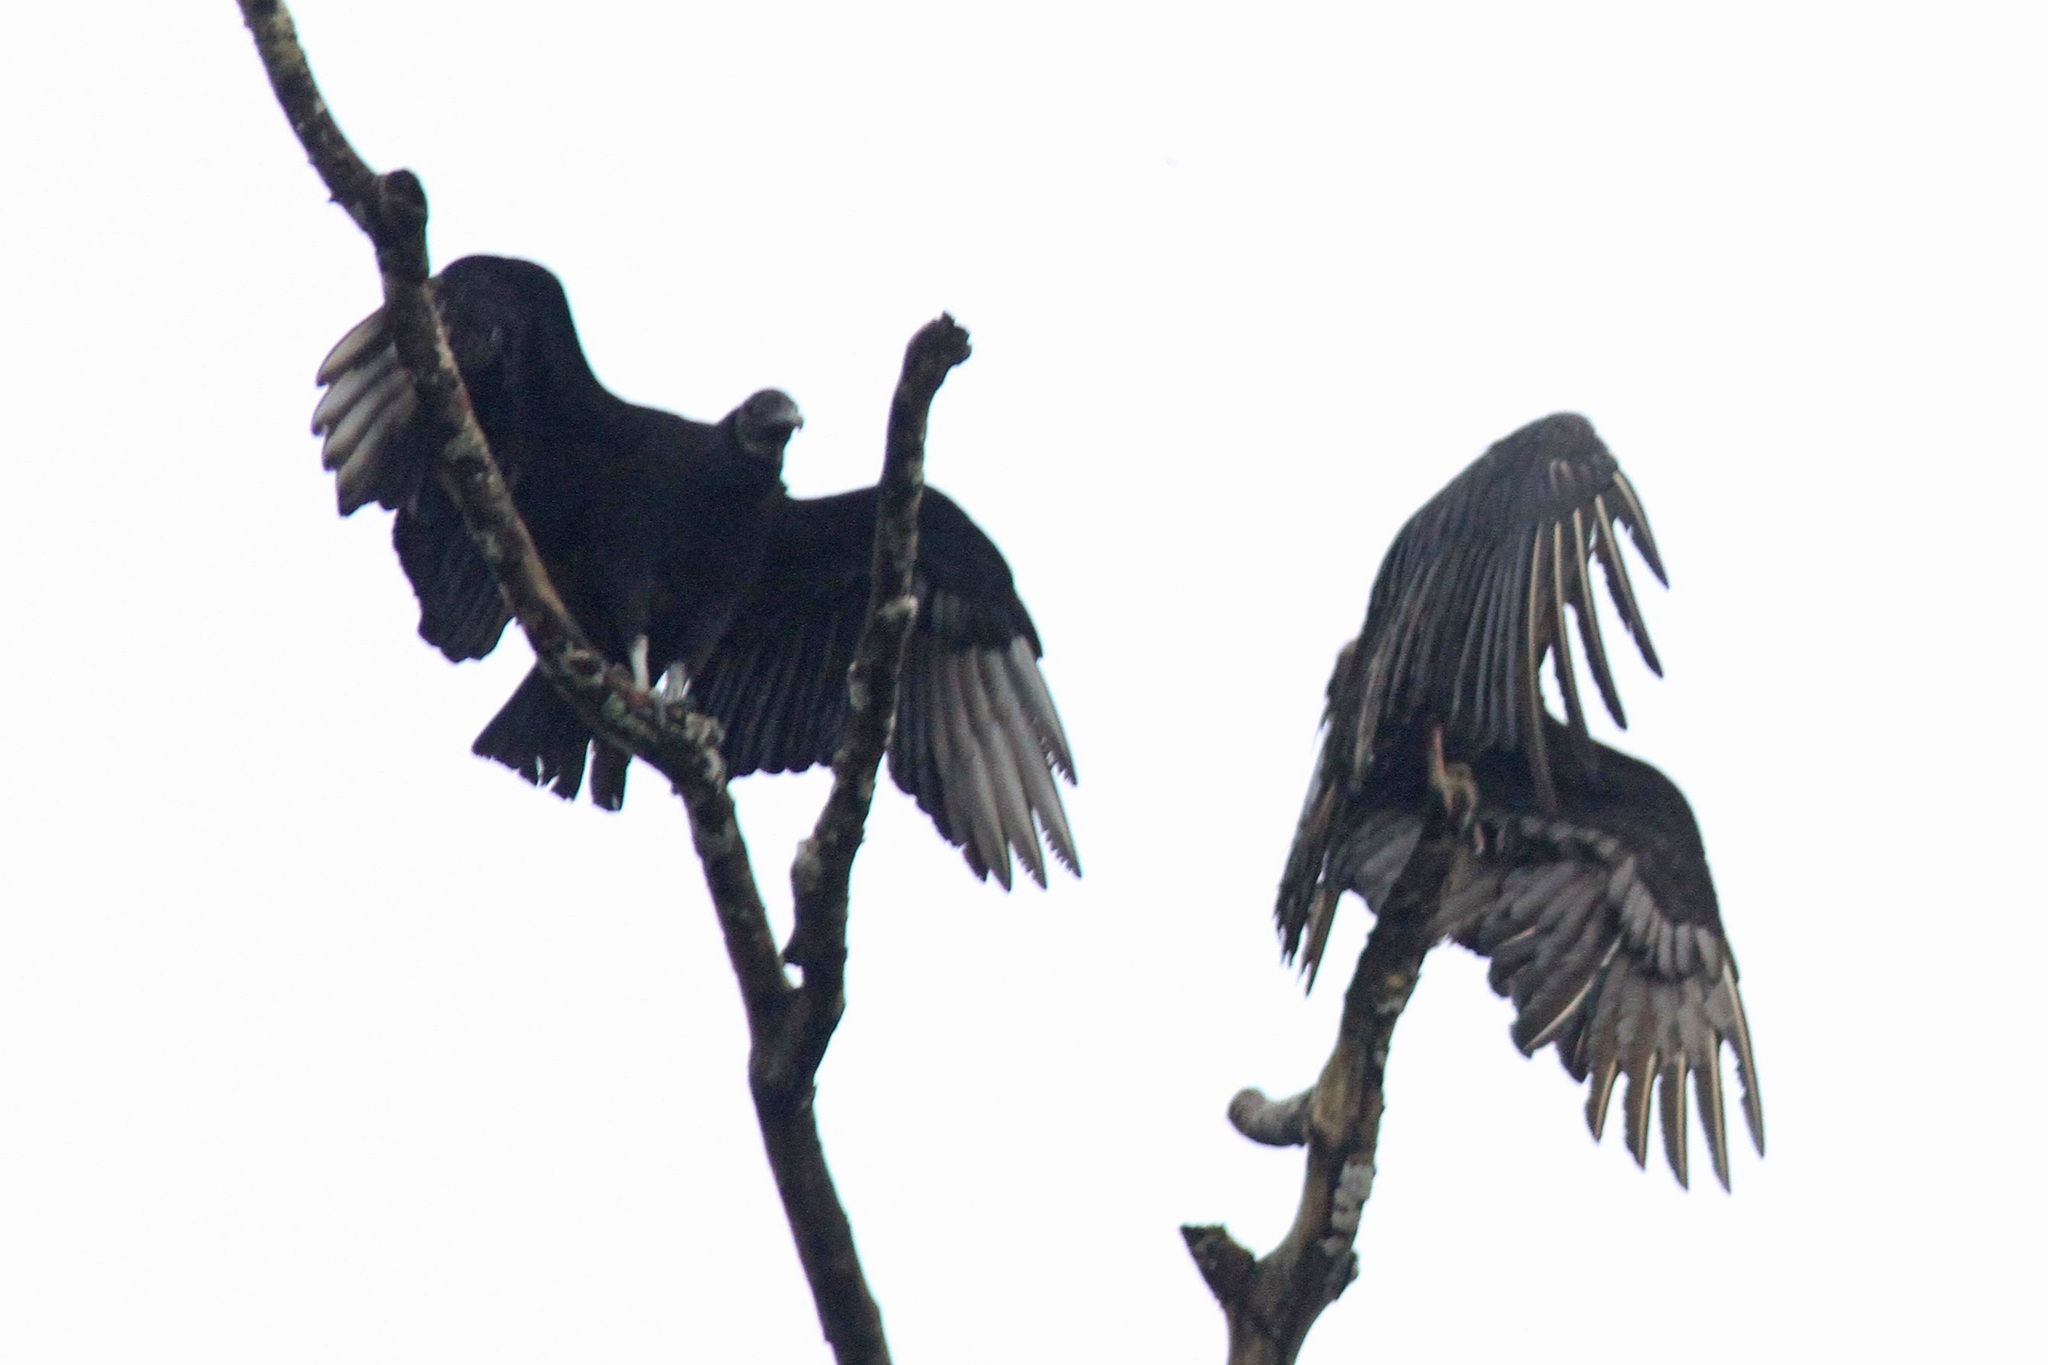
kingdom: Animalia
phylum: Chordata
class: Aves
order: Accipitriformes
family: Cathartidae
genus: Coragyps
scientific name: Coragyps atratus
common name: Black vulture
